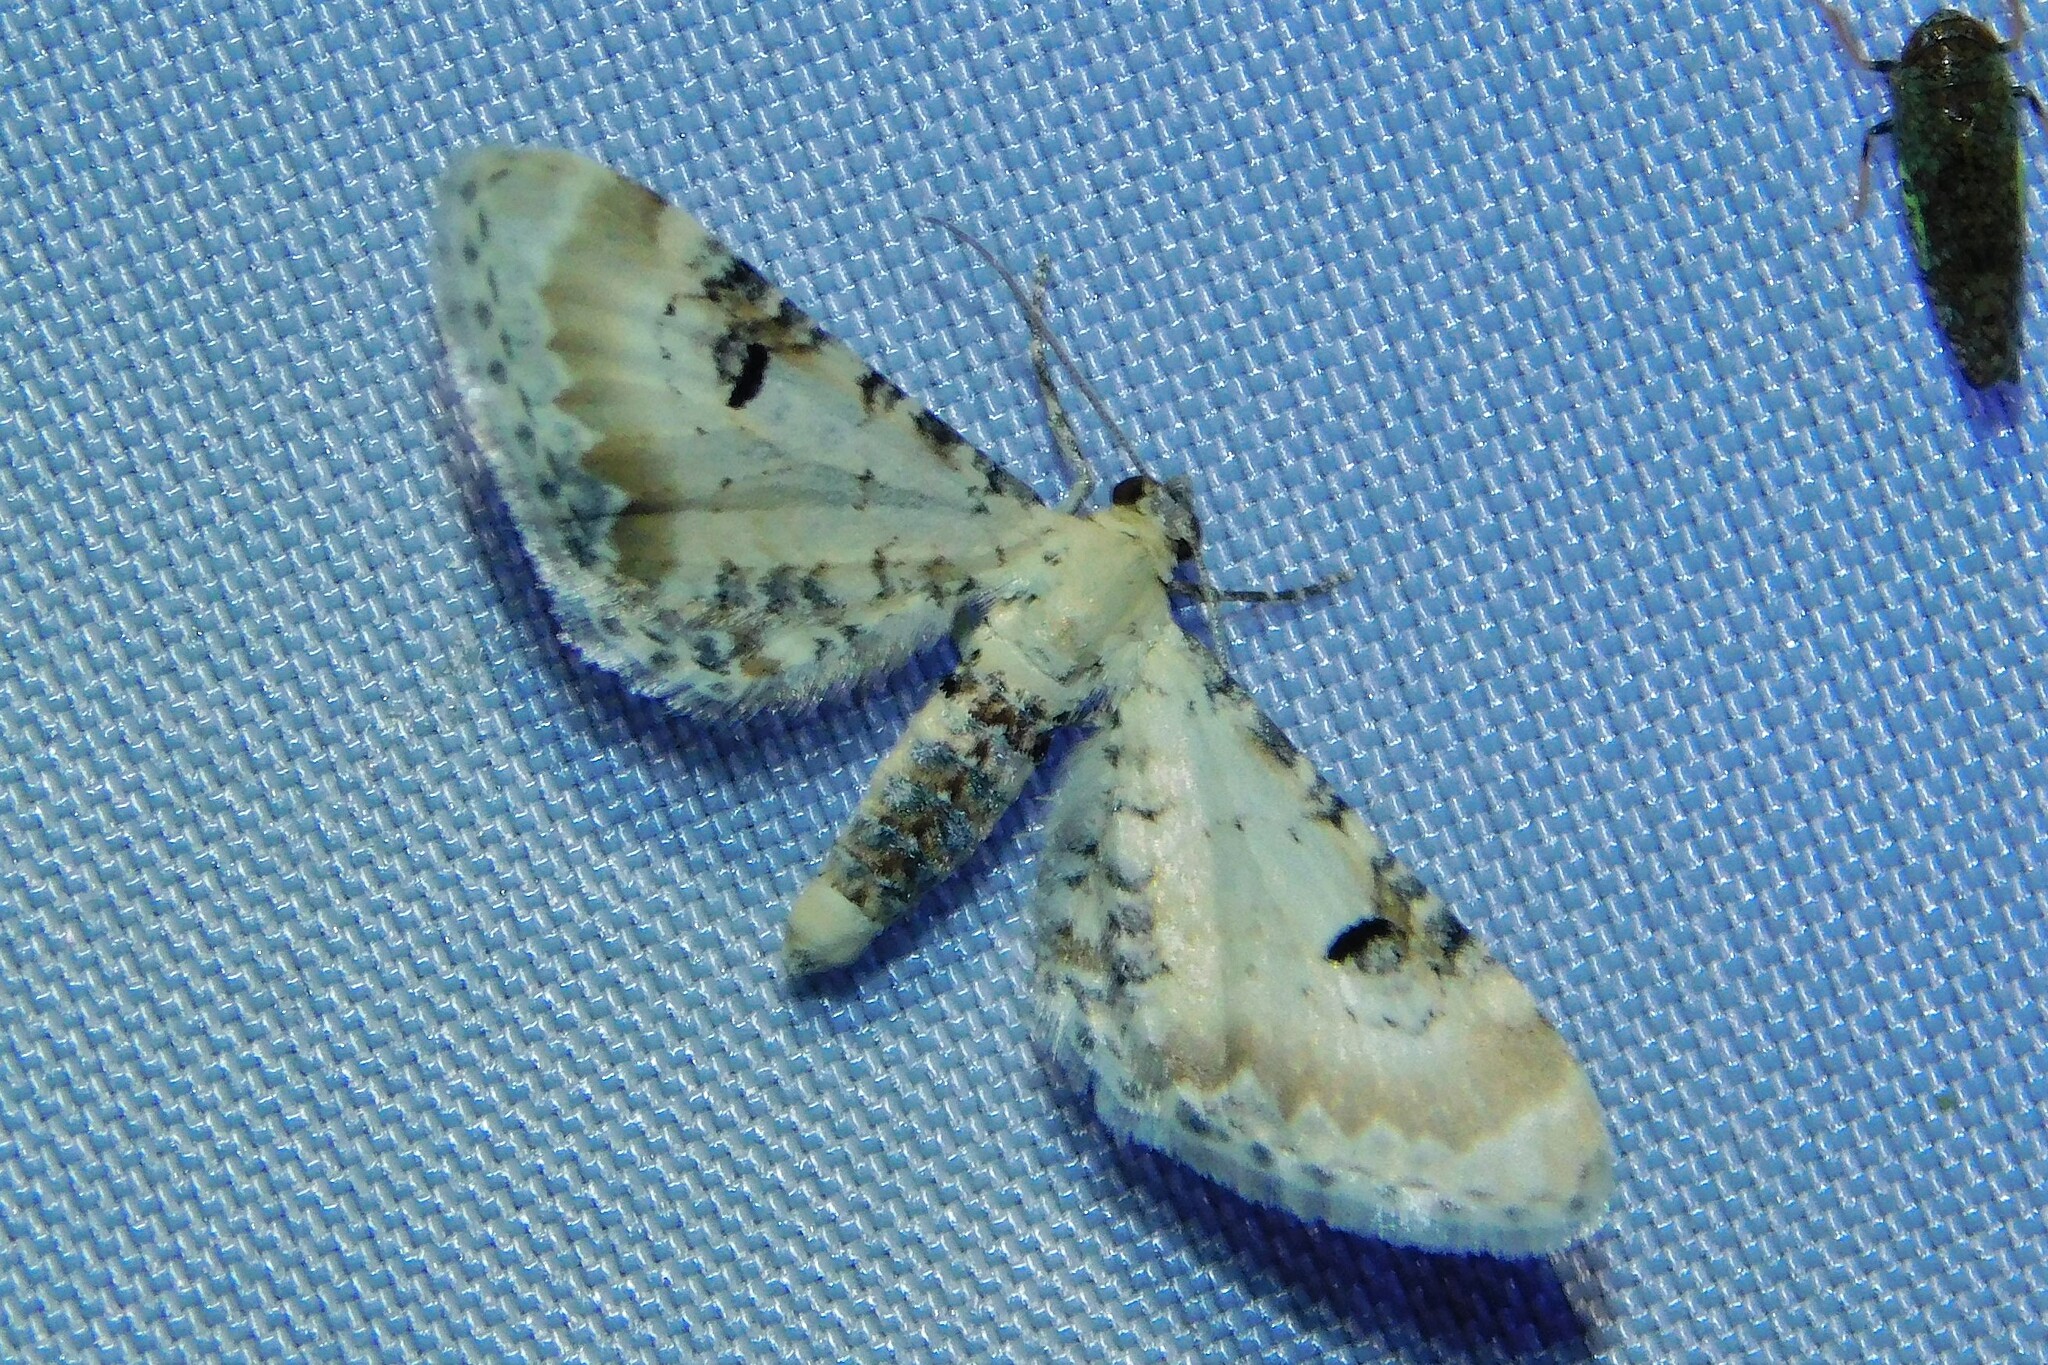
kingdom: Animalia
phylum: Arthropoda
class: Insecta
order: Lepidoptera
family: Geometridae
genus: Eupithecia
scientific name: Eupithecia centaureata
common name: Lime-speck pug
